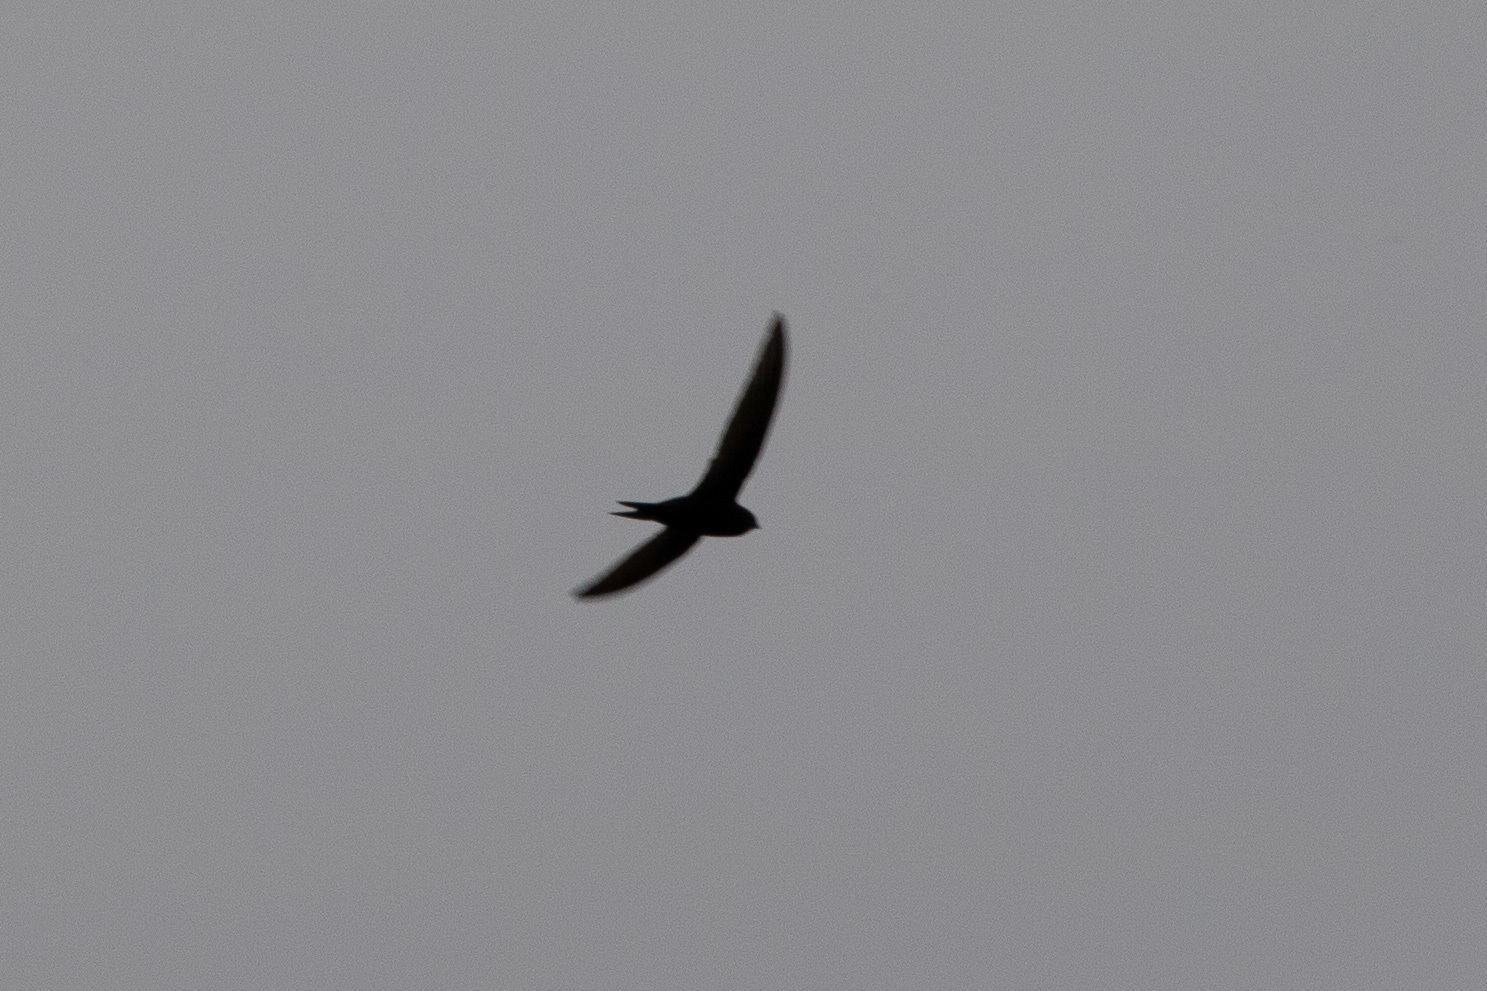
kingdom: Animalia
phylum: Chordata
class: Aves
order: Apodiformes
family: Apodidae
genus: Apus
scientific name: Apus apus
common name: Common swift
